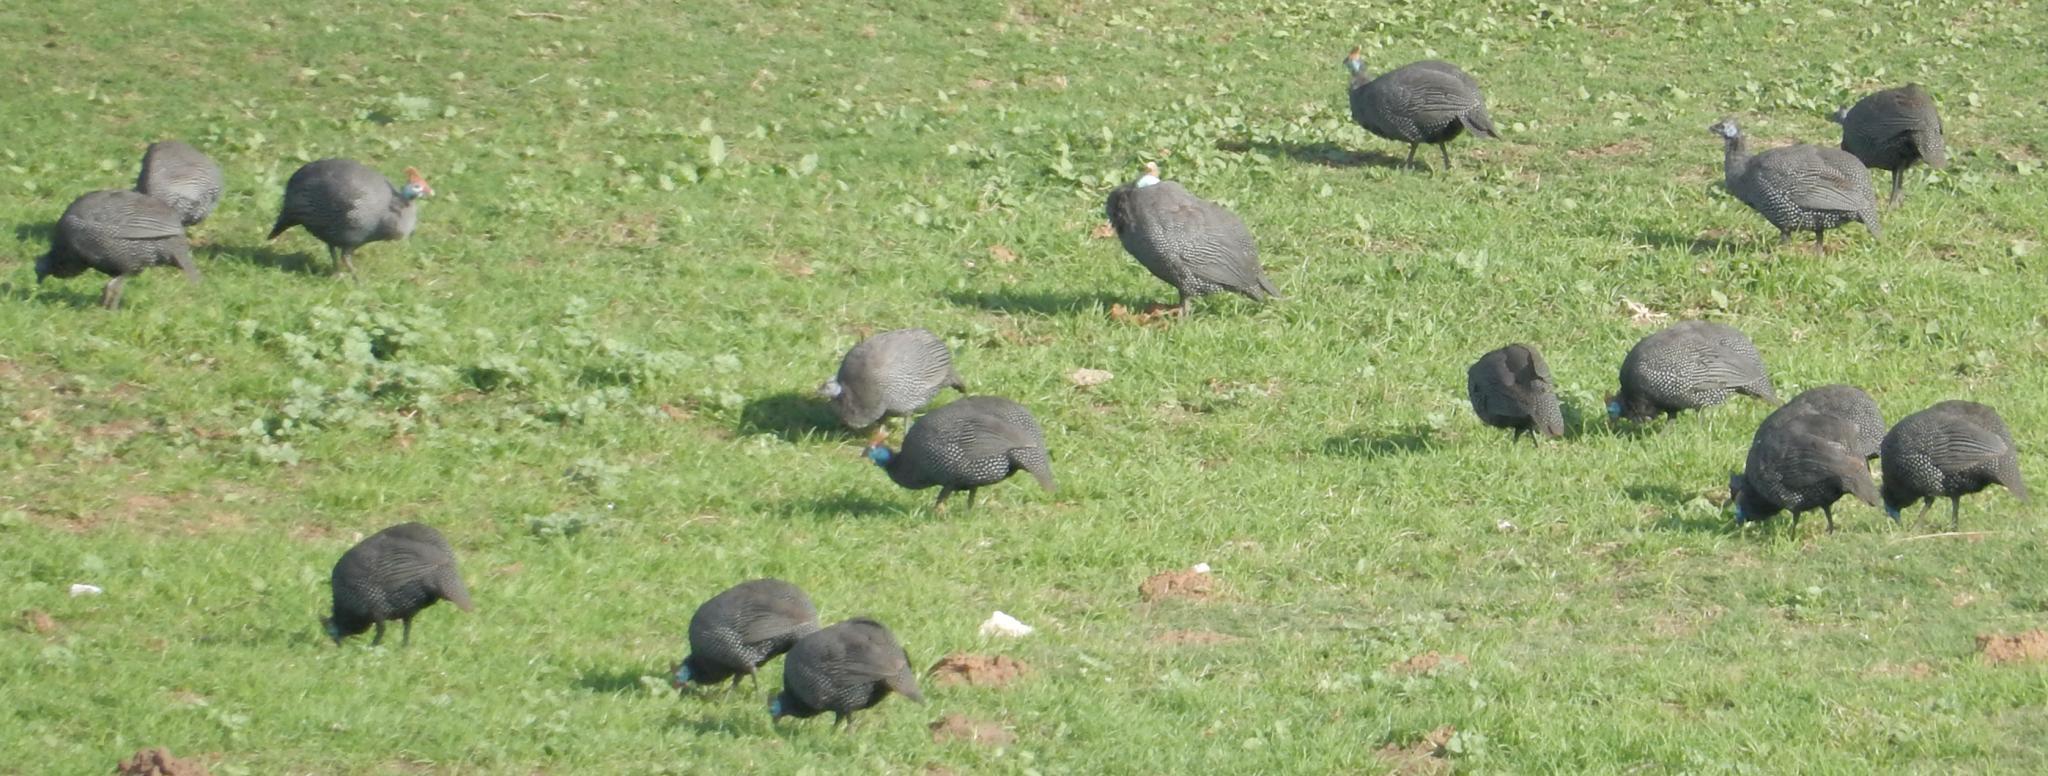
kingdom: Animalia
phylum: Chordata
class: Aves
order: Galliformes
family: Numididae
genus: Numida
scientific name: Numida meleagris
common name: Helmeted guineafowl
